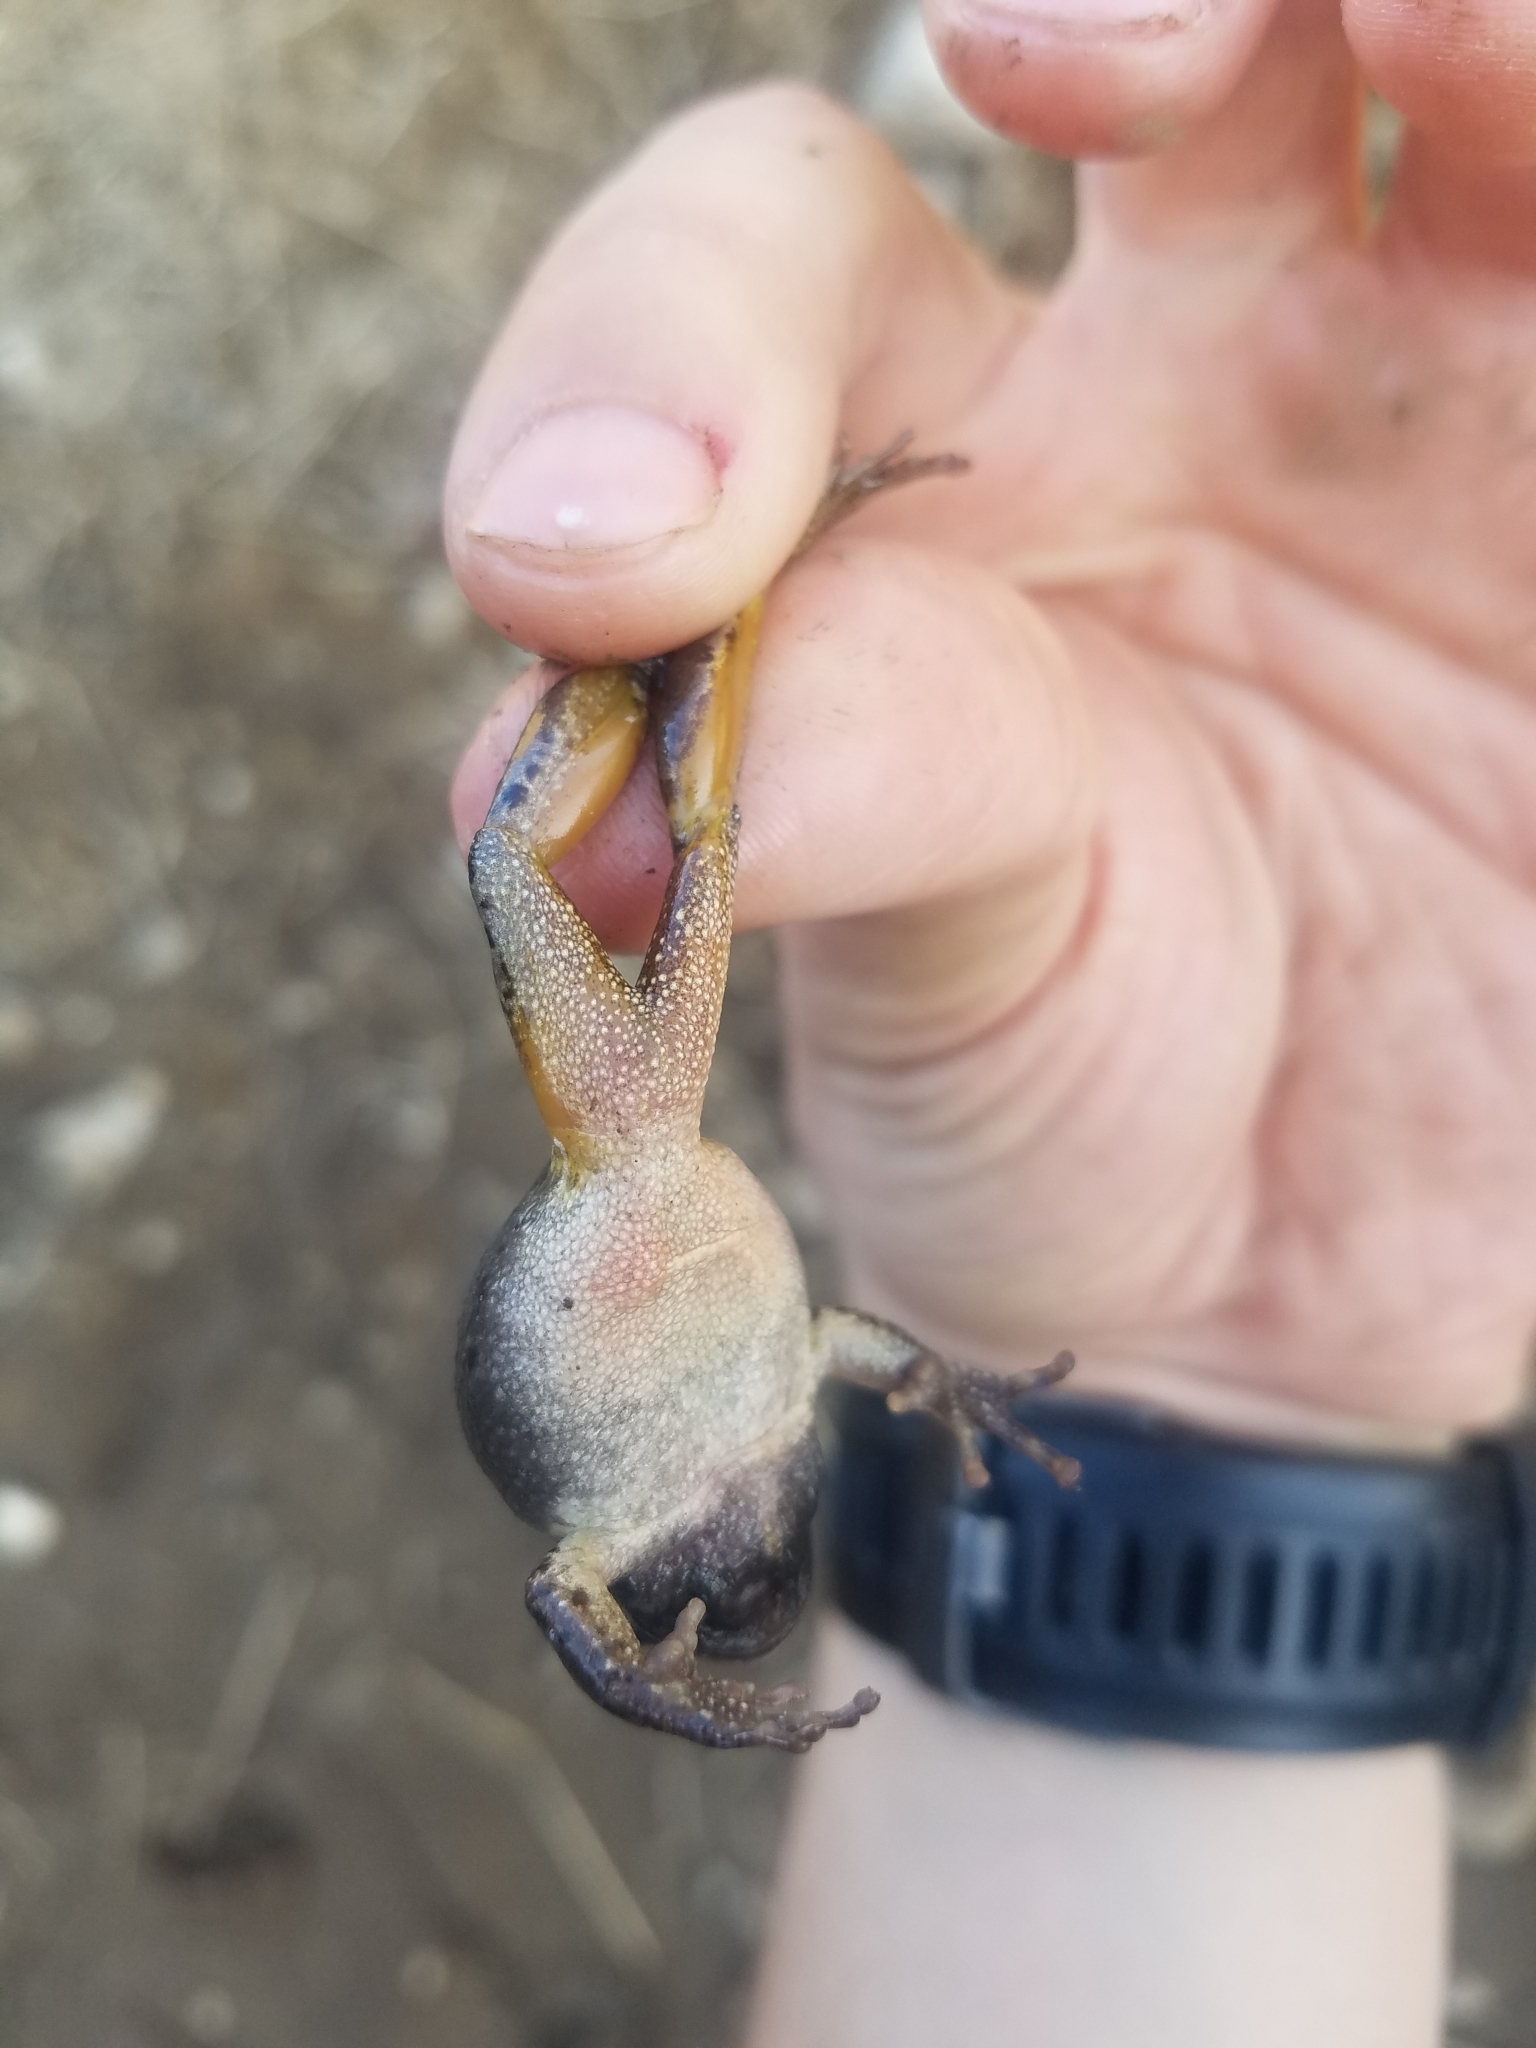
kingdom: Animalia
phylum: Chordata
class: Amphibia
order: Anura
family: Hylidae
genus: Pseudacris
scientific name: Pseudacris regilla
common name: Pacific chorus frog
